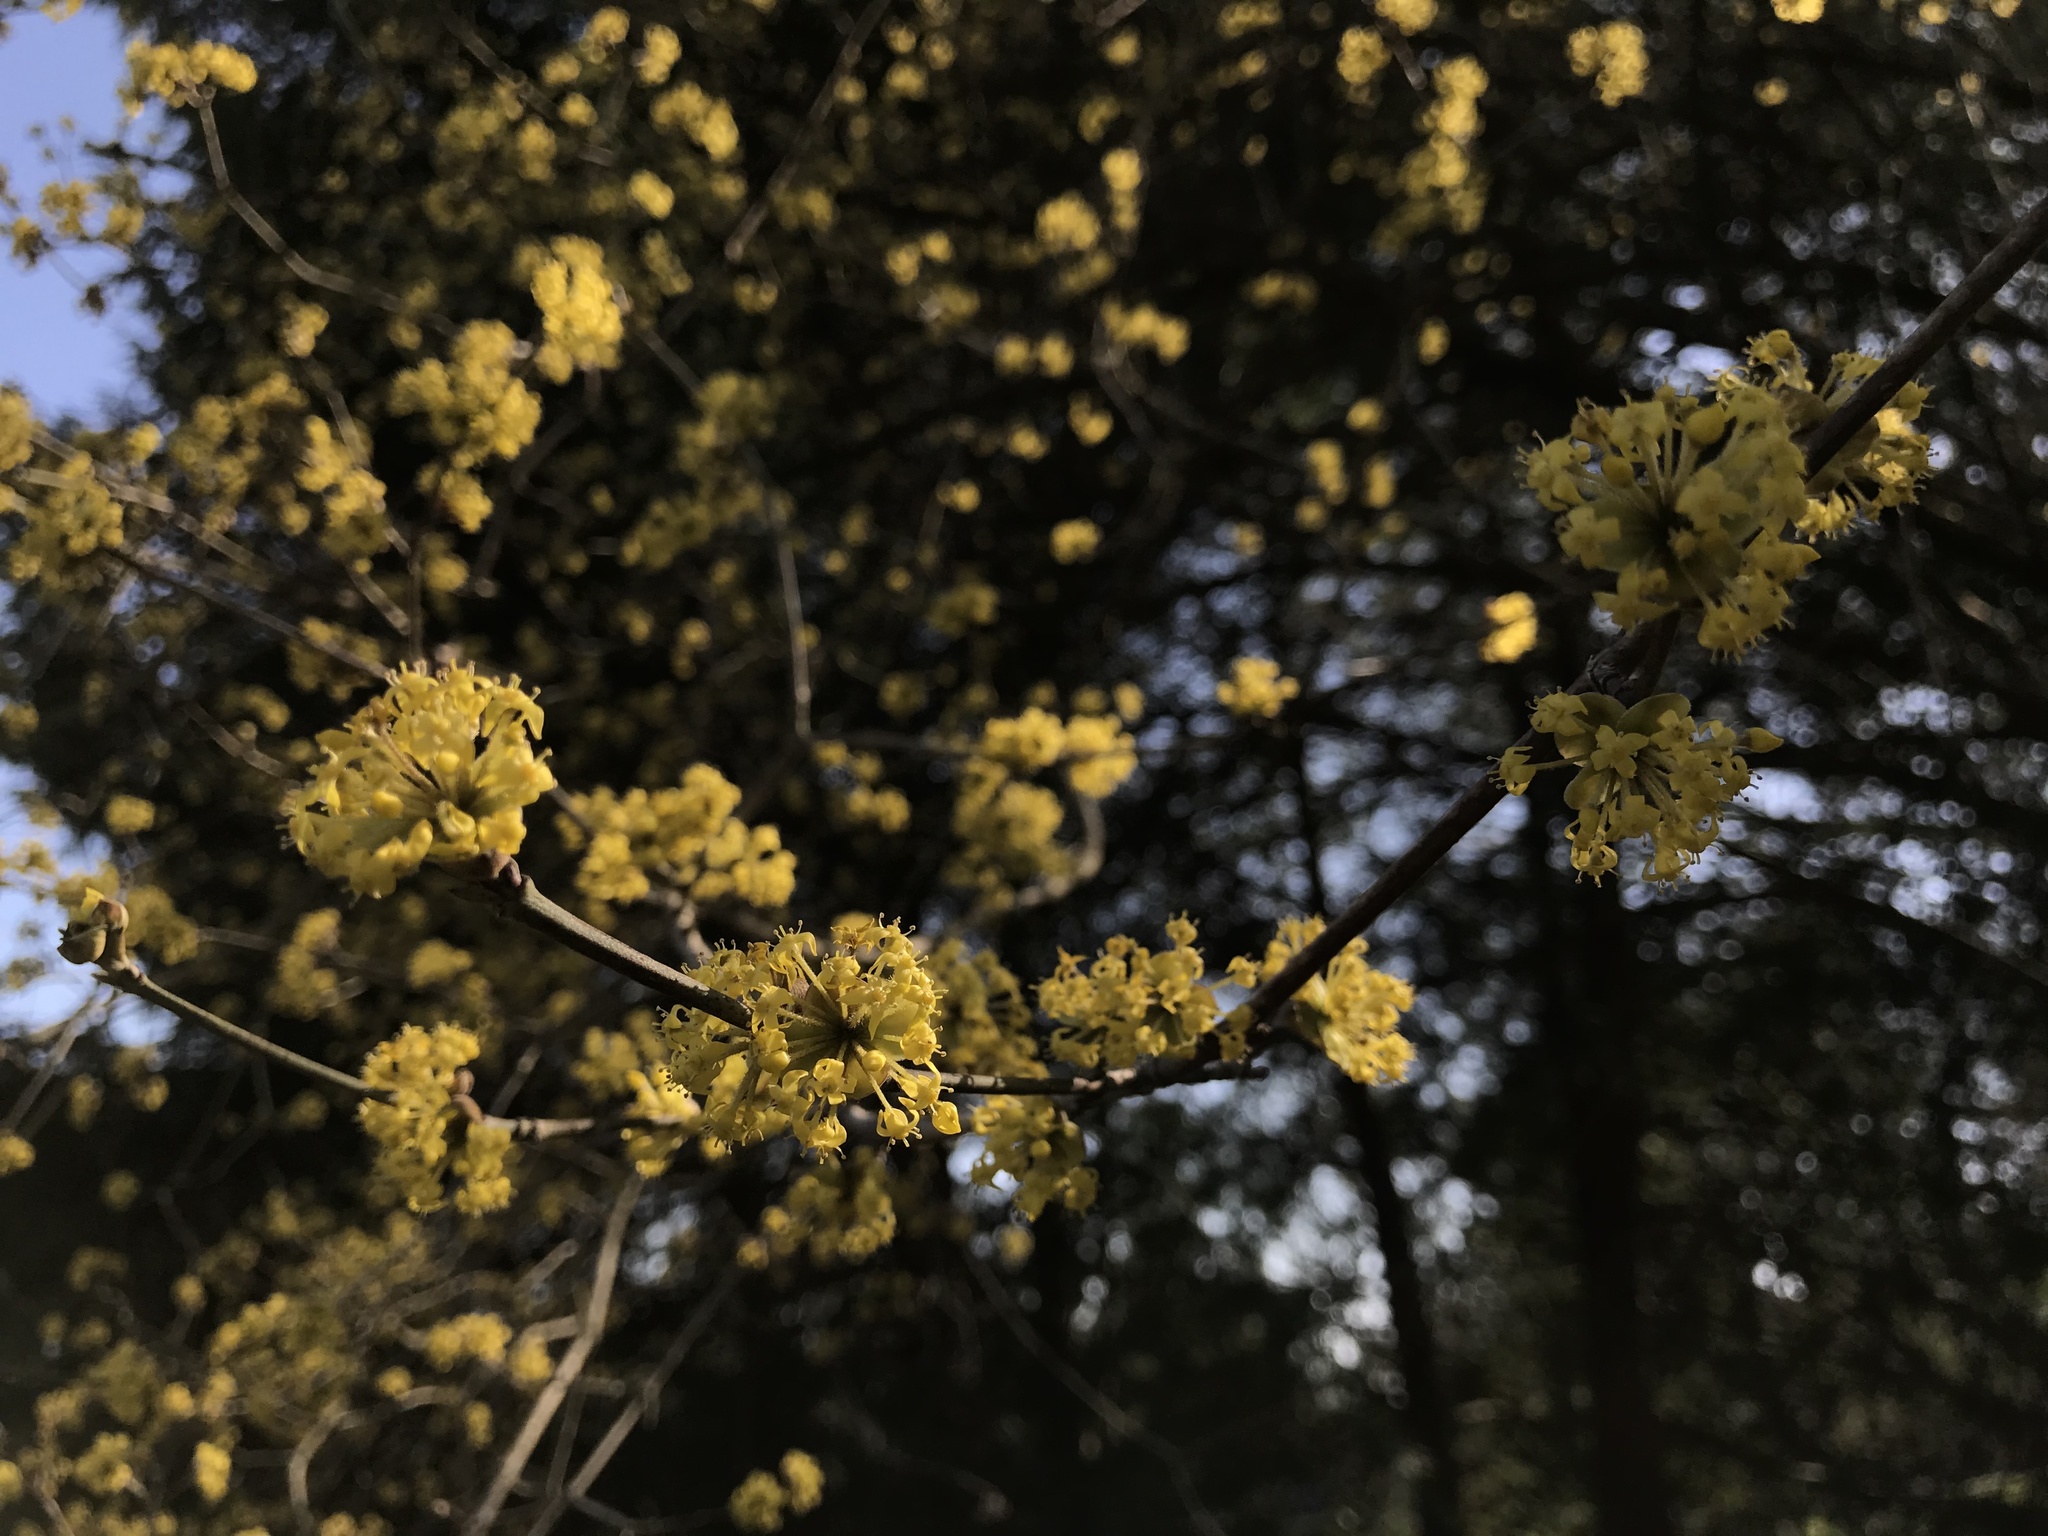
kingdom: Plantae
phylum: Tracheophyta
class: Magnoliopsida
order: Cornales
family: Cornaceae
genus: Cornus
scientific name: Cornus mas
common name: Cornelian-cherry
